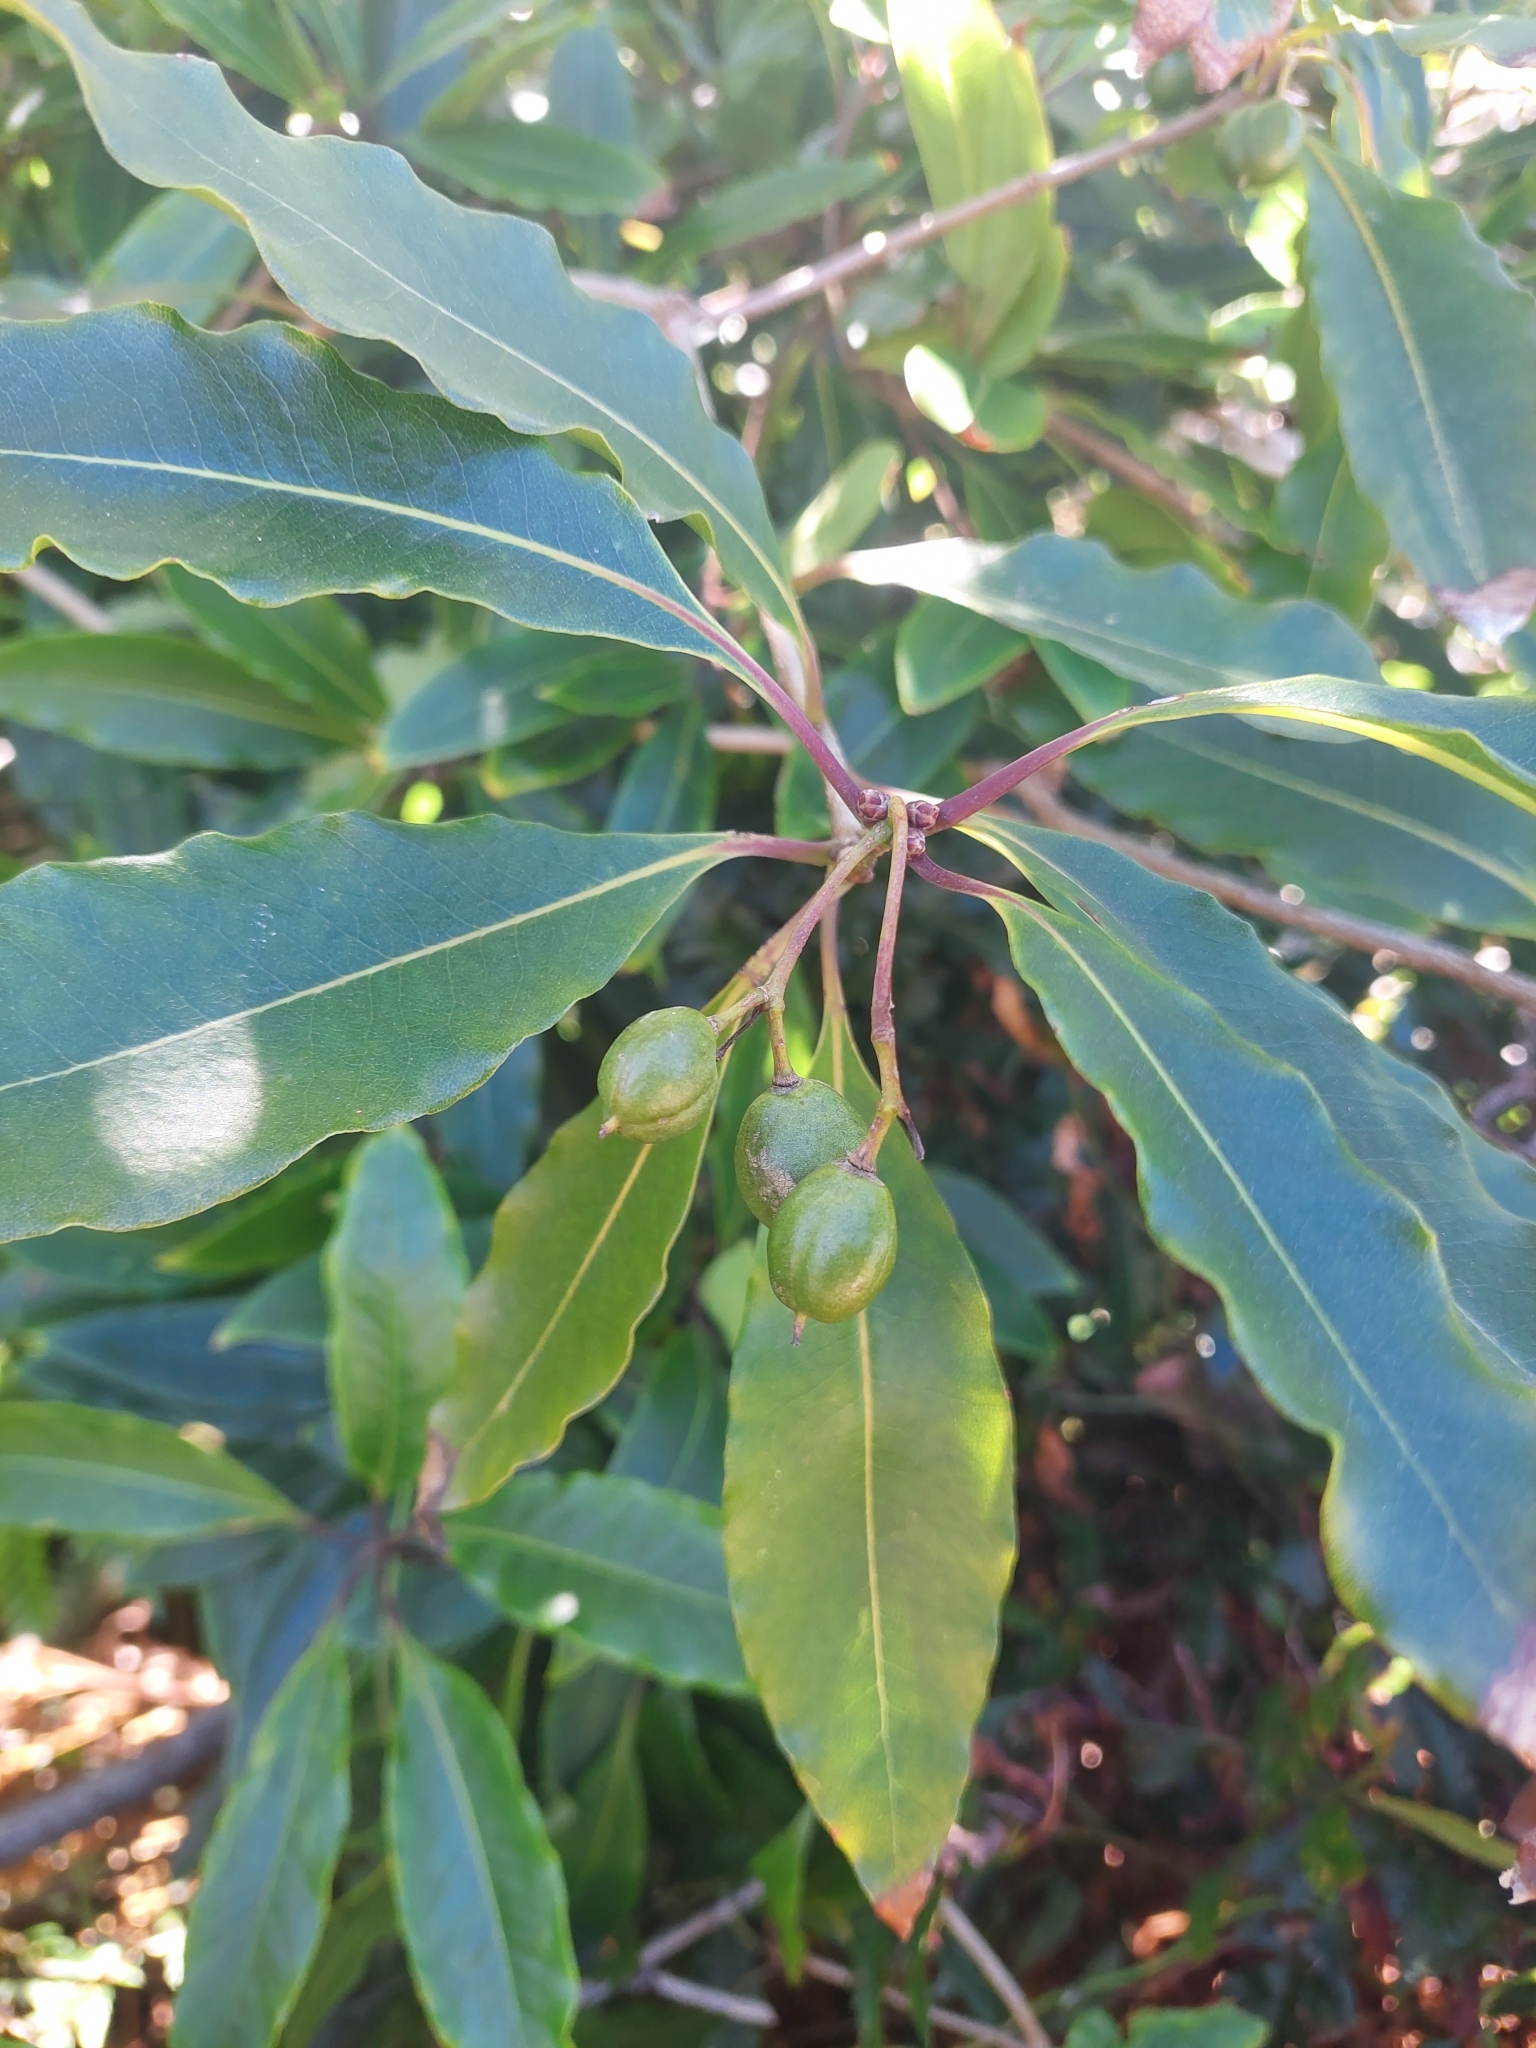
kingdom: Plantae
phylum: Tracheophyta
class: Magnoliopsida
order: Apiales
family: Pittosporaceae
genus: Pittosporum
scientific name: Pittosporum undulatum
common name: Australian cheesewood
